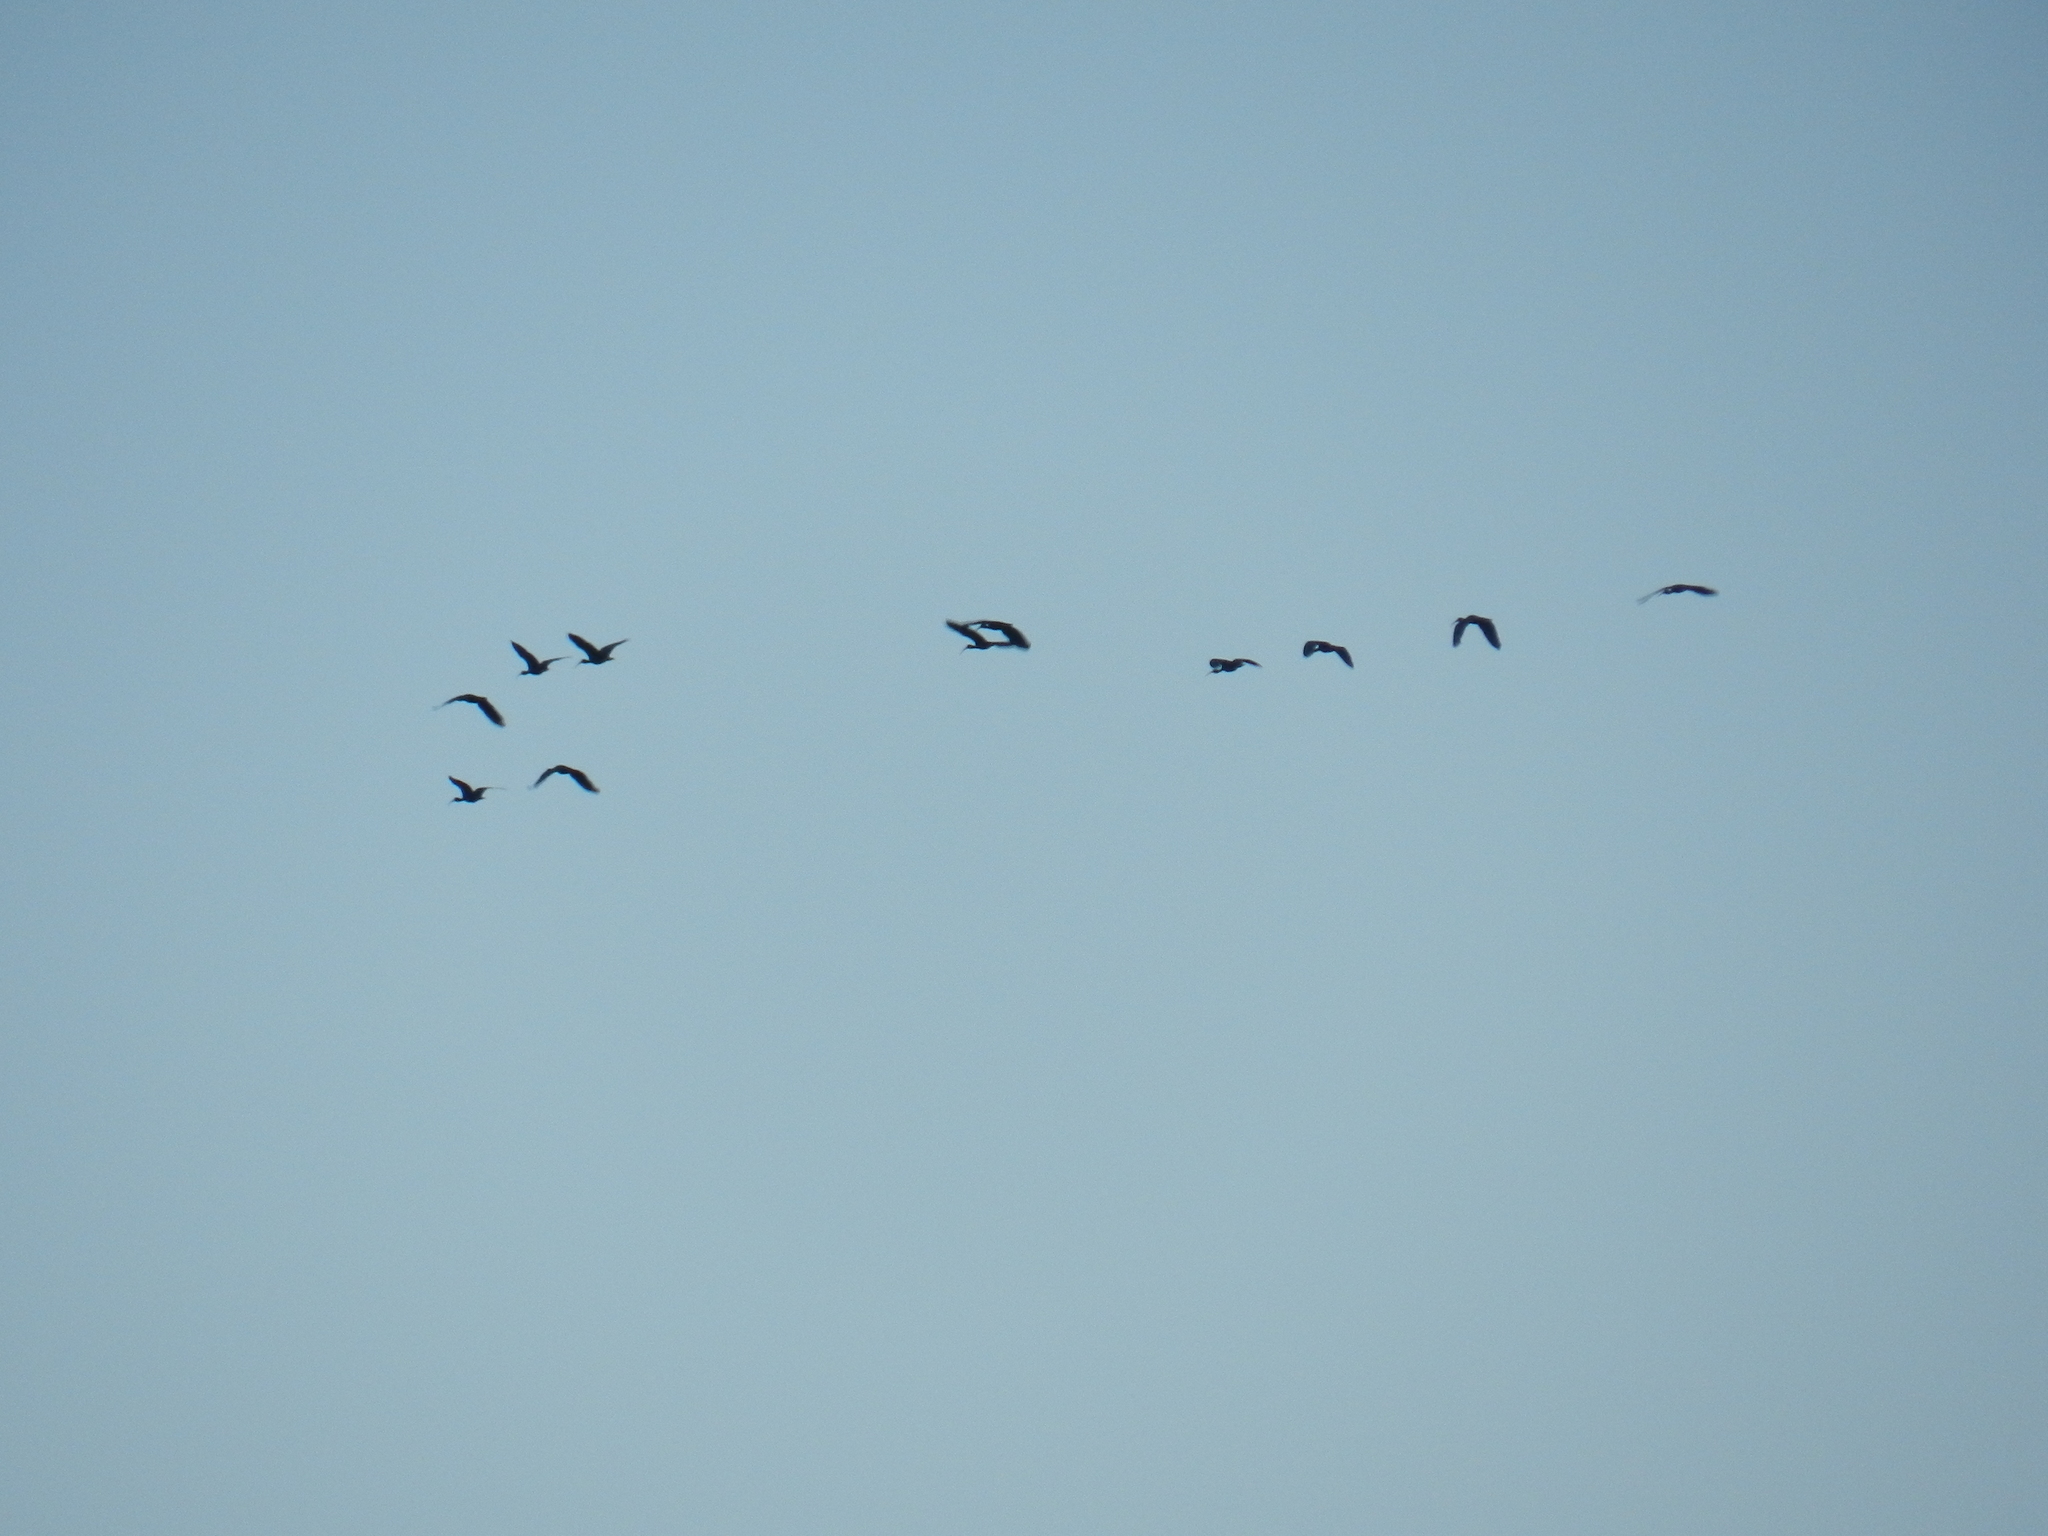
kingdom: Animalia
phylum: Chordata
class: Aves
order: Pelecaniformes
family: Threskiornithidae
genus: Phimosus
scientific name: Phimosus infuscatus
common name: Bare-faced ibis
